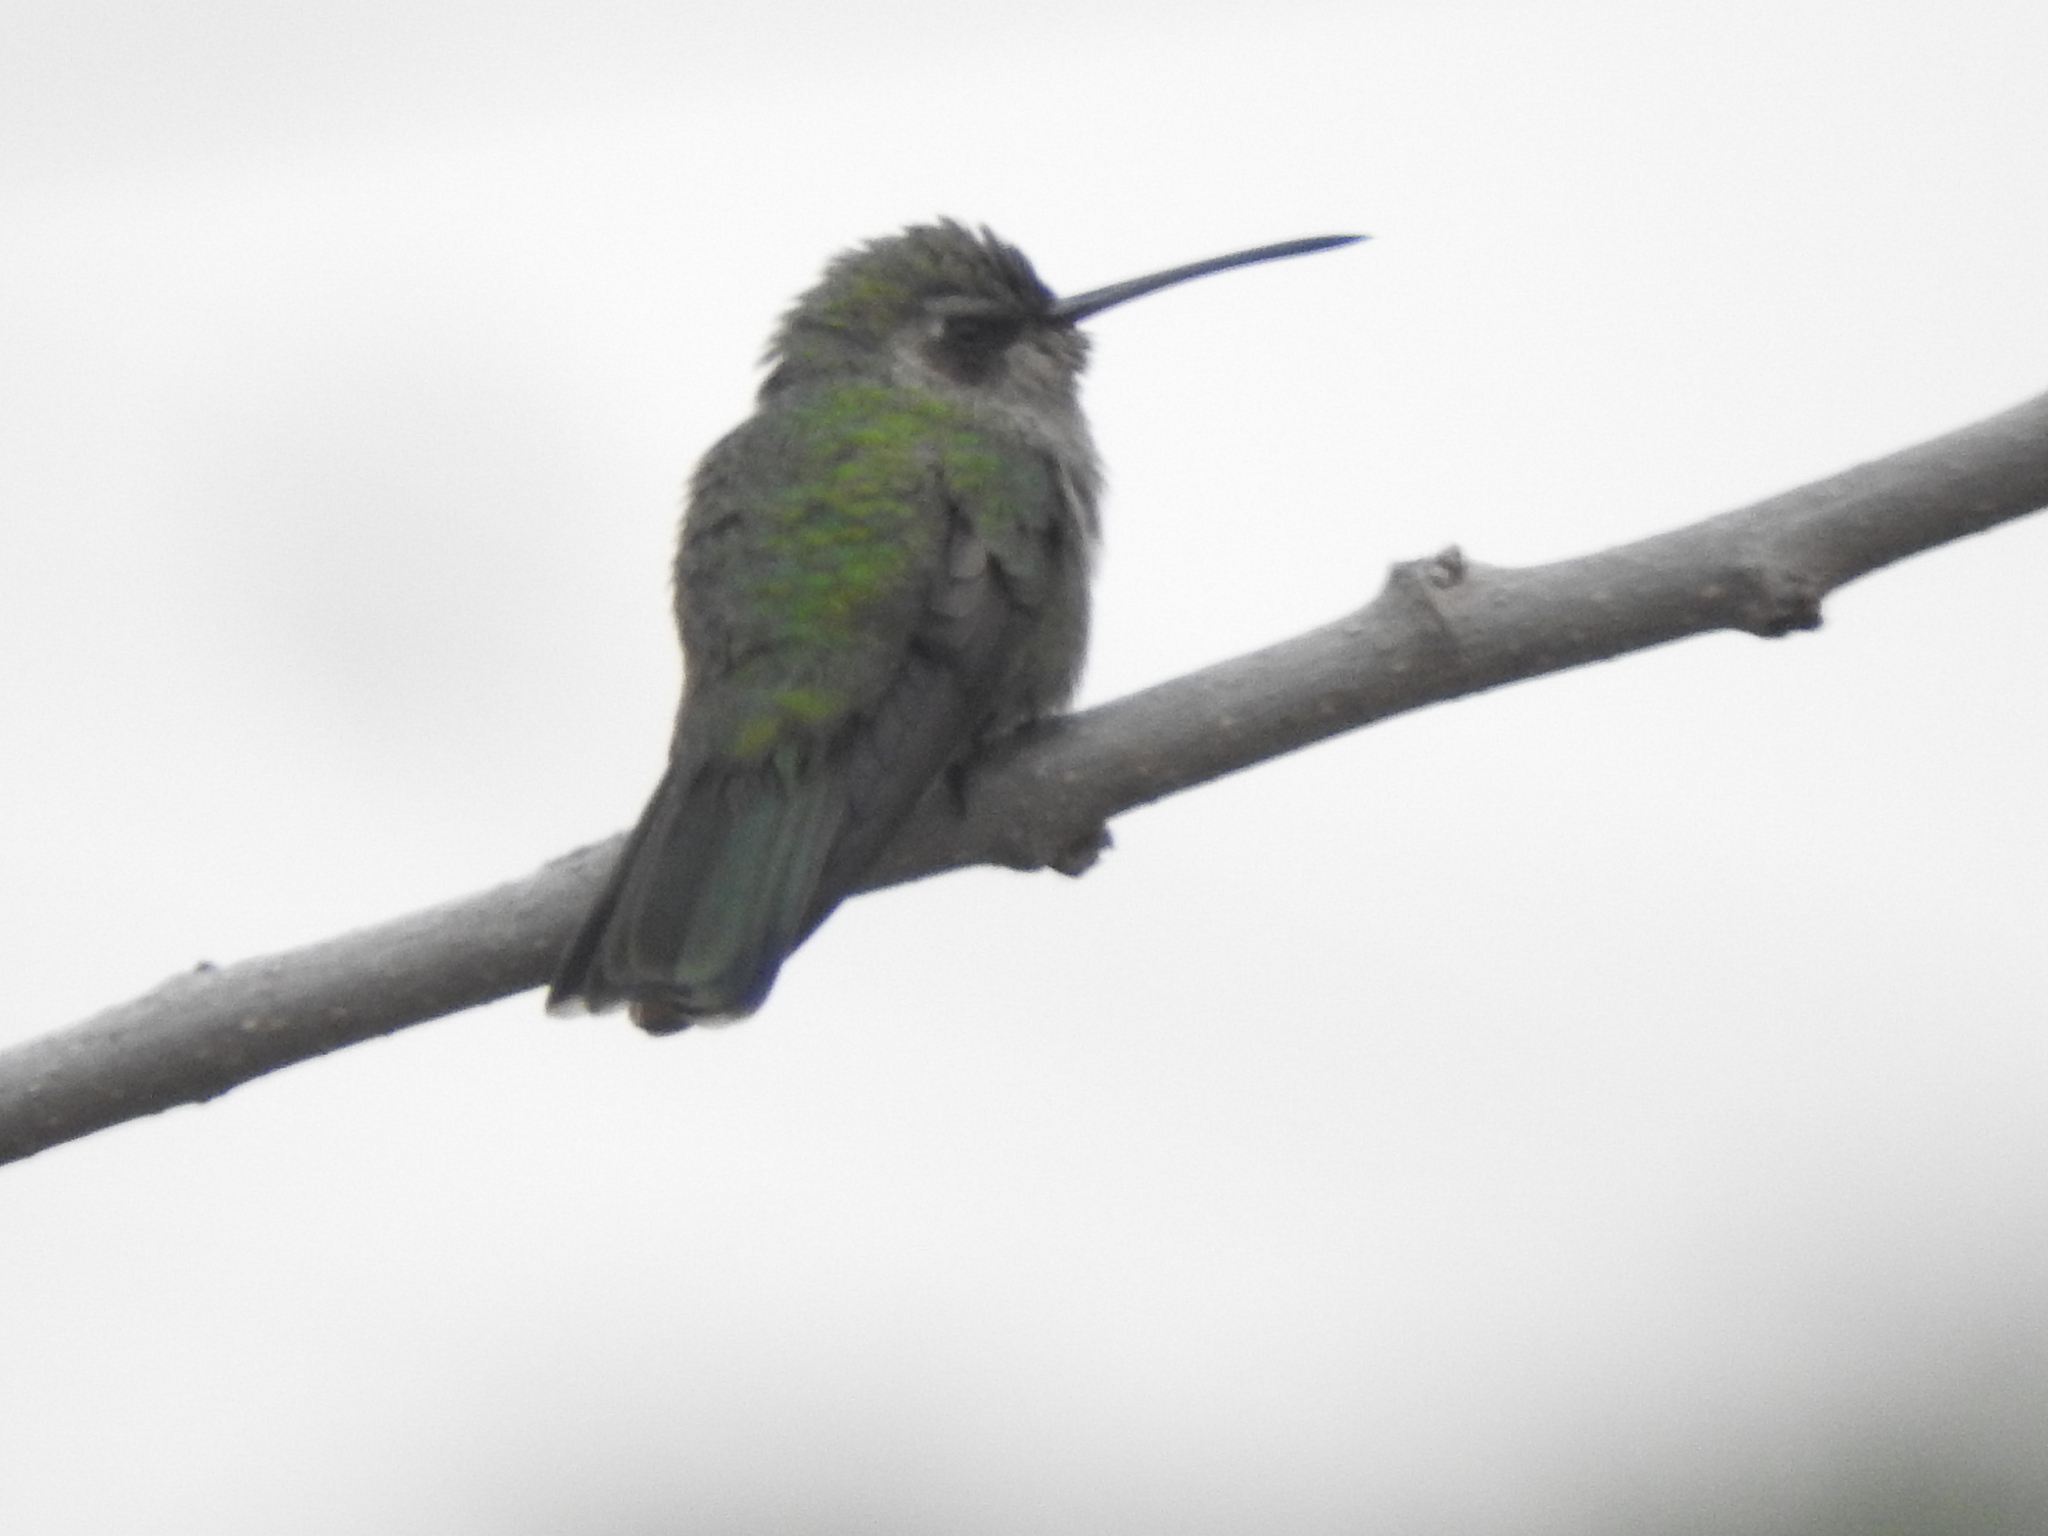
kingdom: Animalia
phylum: Chordata
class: Aves
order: Apodiformes
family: Trochilidae
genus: Cynanthus
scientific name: Cynanthus latirostris
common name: Broad-billed hummingbird
